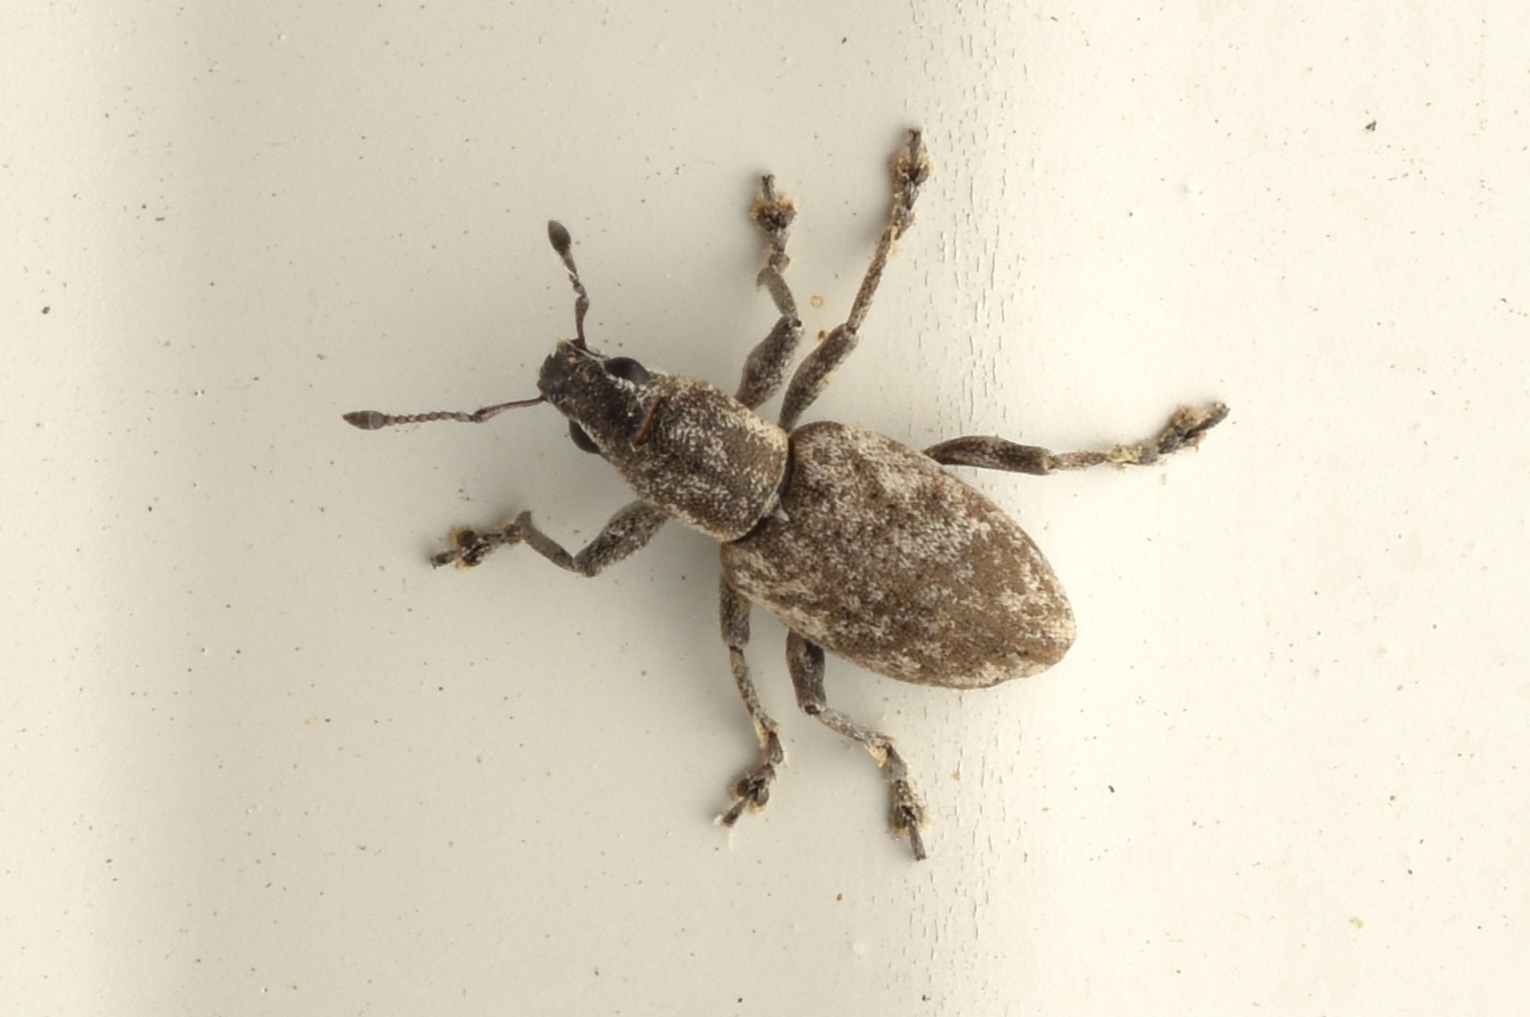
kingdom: Animalia
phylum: Arthropoda
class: Insecta
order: Coleoptera
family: Curculionidae
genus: Tanymecus
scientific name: Tanymecus confusus
